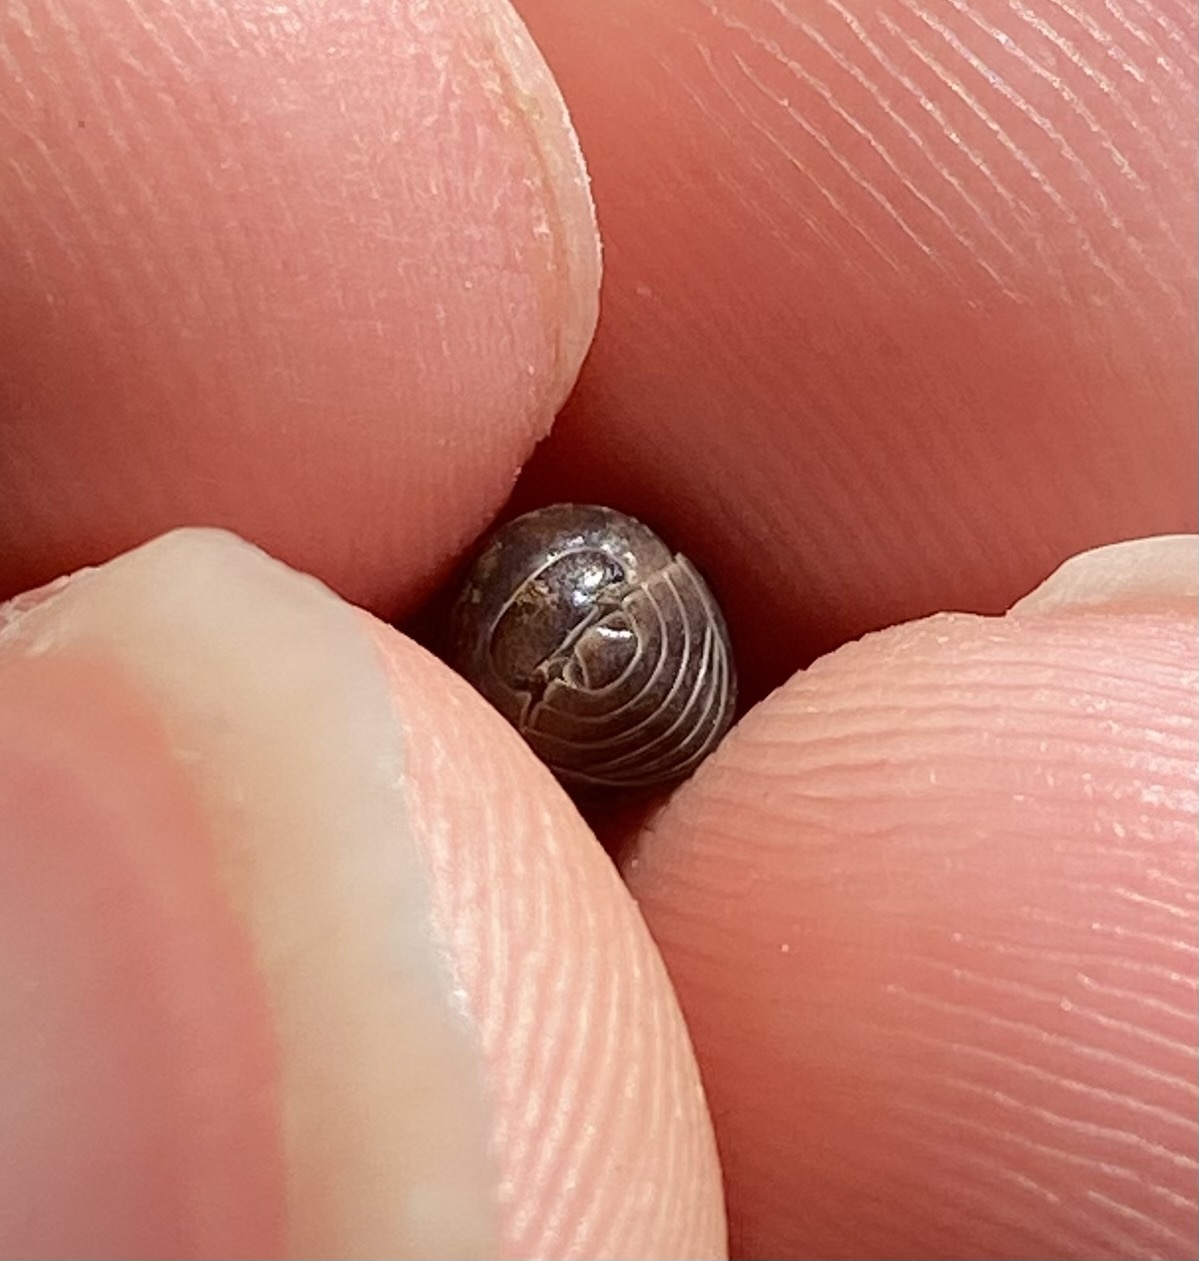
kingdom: Animalia
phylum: Arthropoda
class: Malacostraca
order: Isopoda
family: Armadillidiidae
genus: Armadillidium
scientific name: Armadillidium vulgare
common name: Common pill woodlouse
